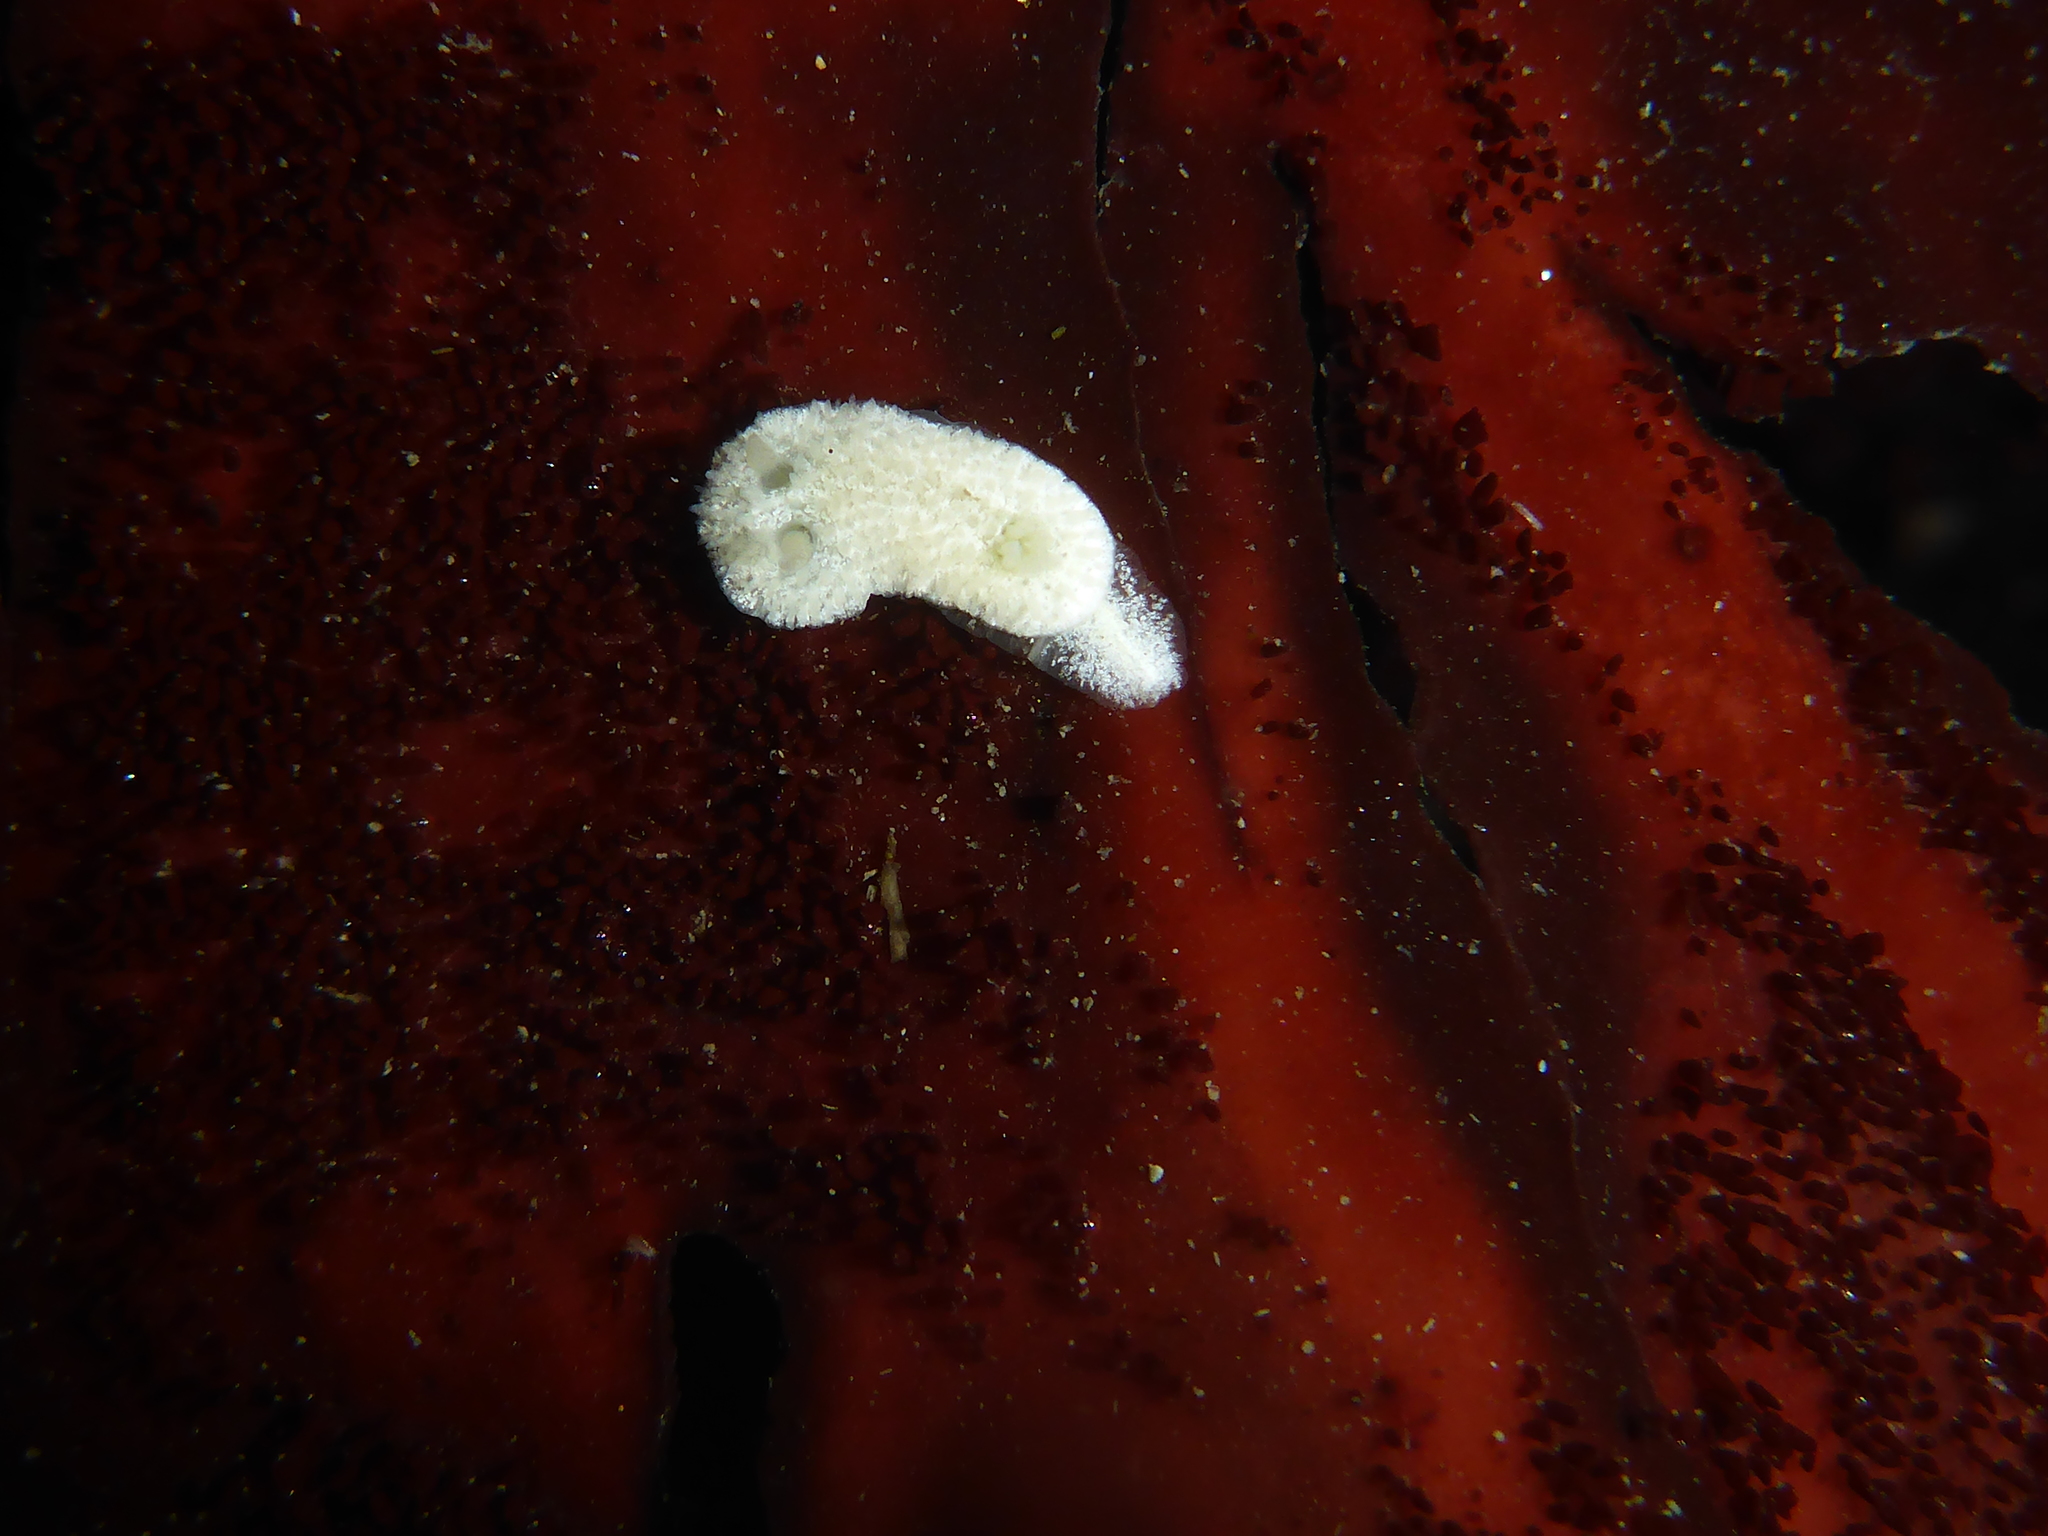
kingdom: Animalia
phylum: Mollusca
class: Gastropoda
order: Nudibranchia
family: Calycidorididae
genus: Diaphorodoris
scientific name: Diaphorodoris lirulatocauda
